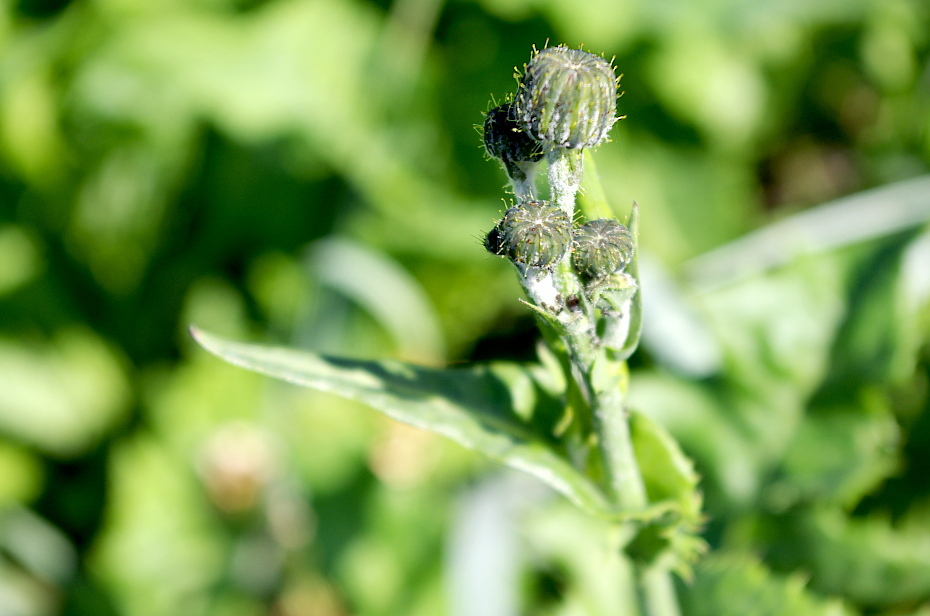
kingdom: Plantae
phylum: Tracheophyta
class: Magnoliopsida
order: Asterales
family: Asteraceae
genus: Sonchus
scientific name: Sonchus arvensis
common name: Perennial sow-thistle
